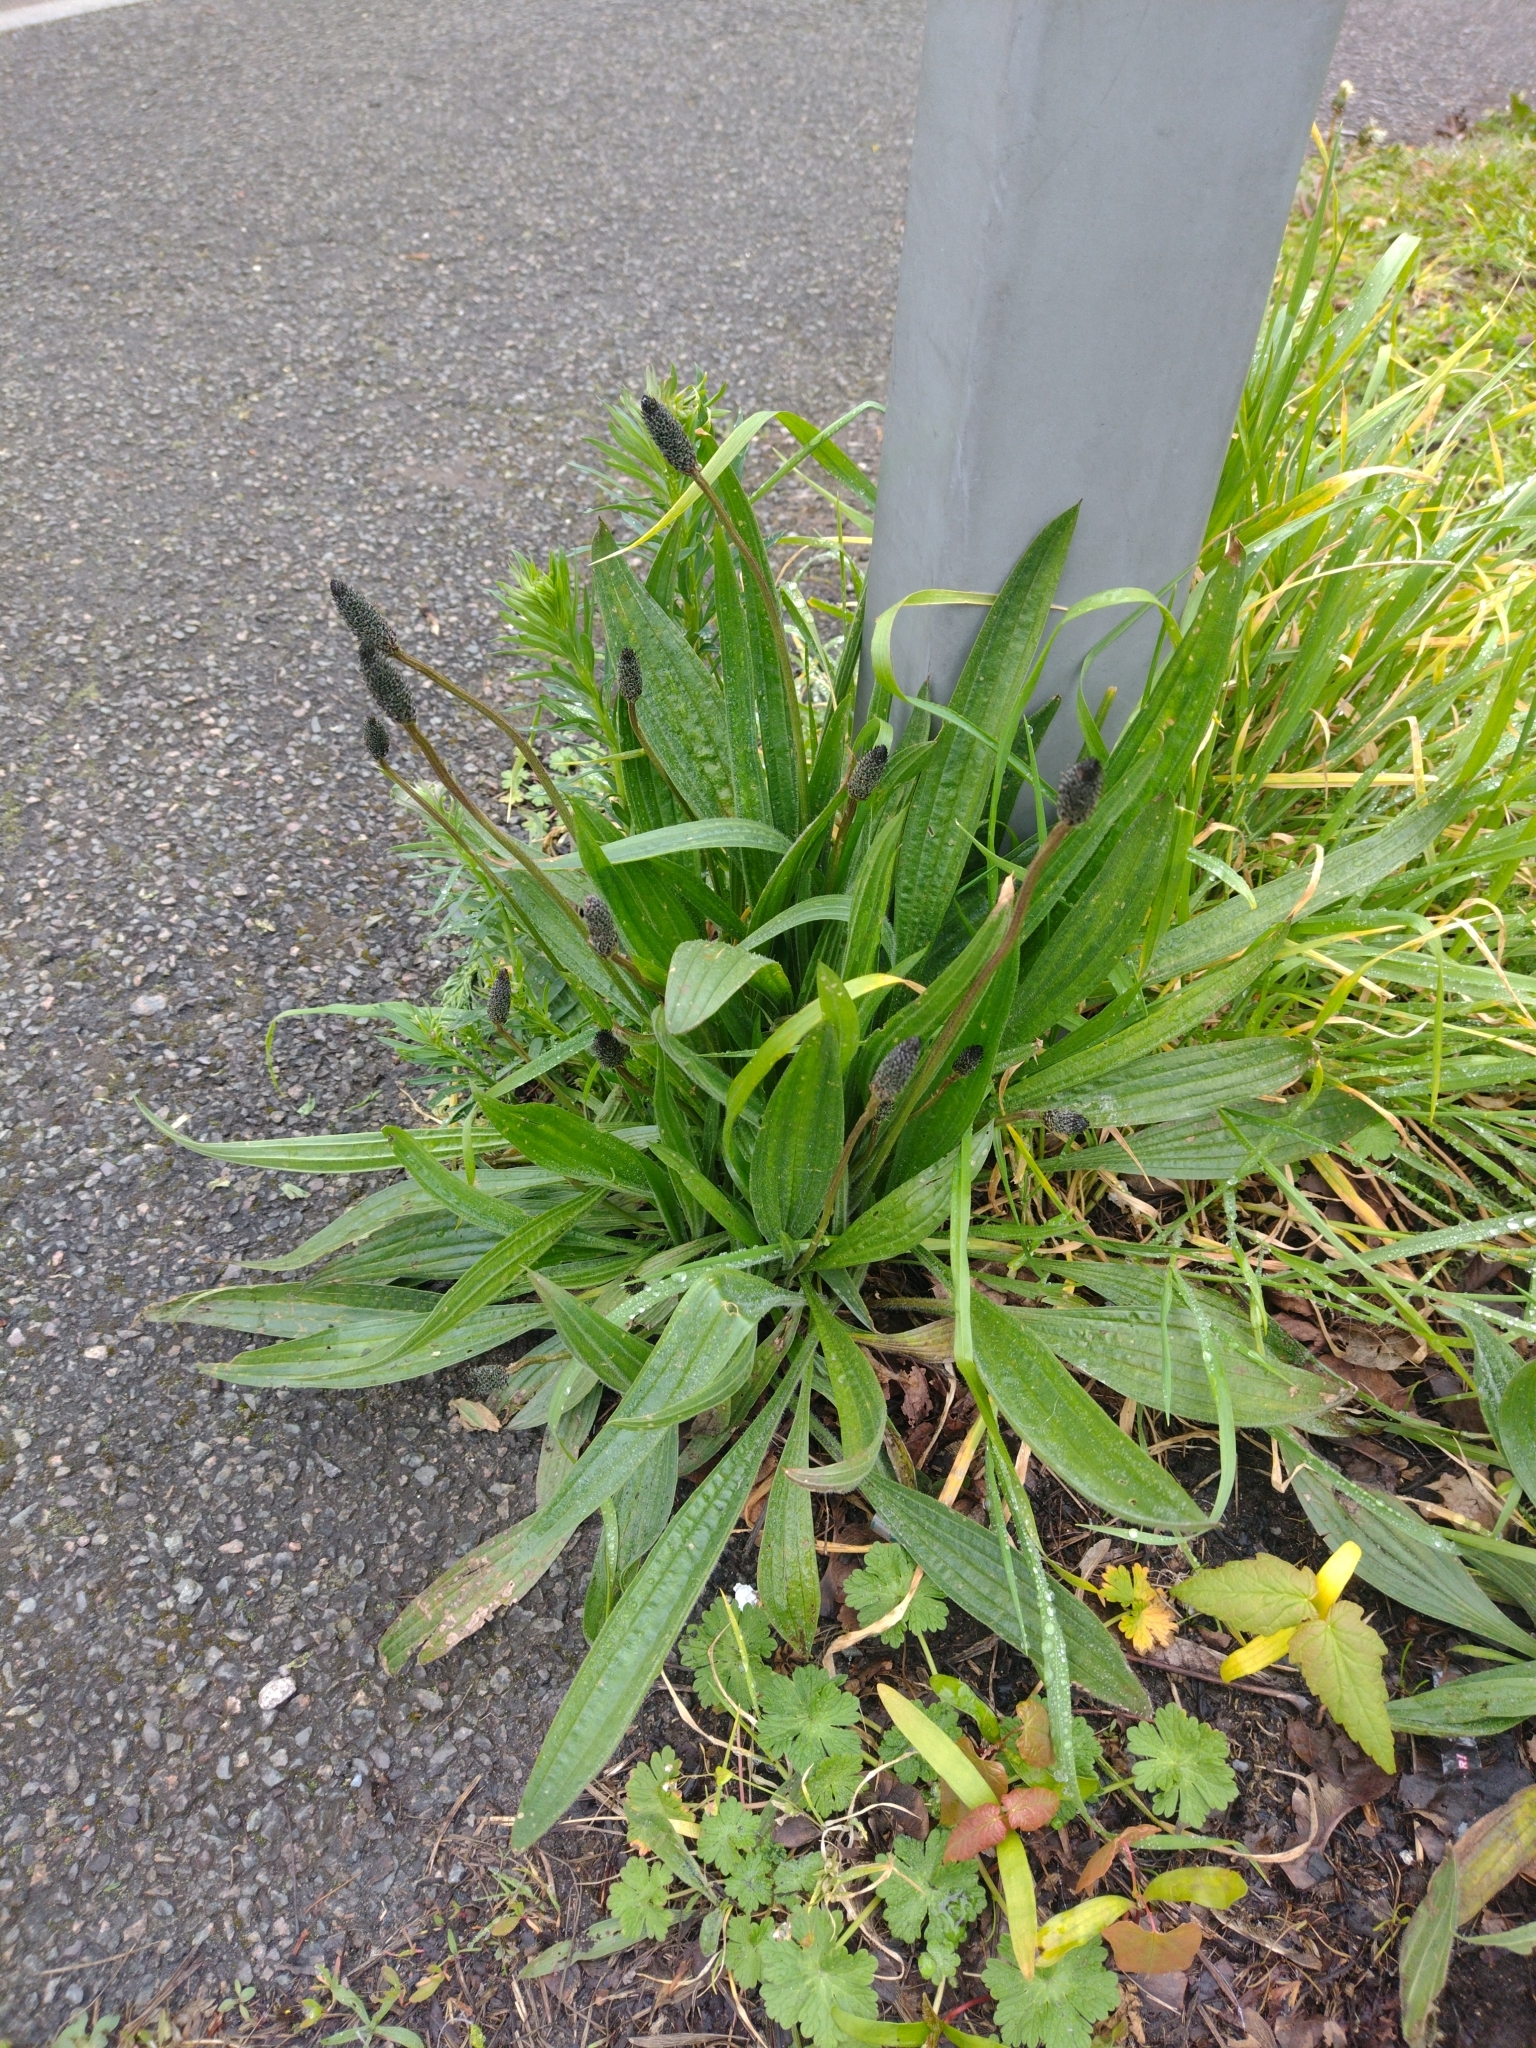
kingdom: Plantae
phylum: Tracheophyta
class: Magnoliopsida
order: Lamiales
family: Plantaginaceae
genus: Plantago
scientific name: Plantago lanceolata
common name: Ribwort plantain
